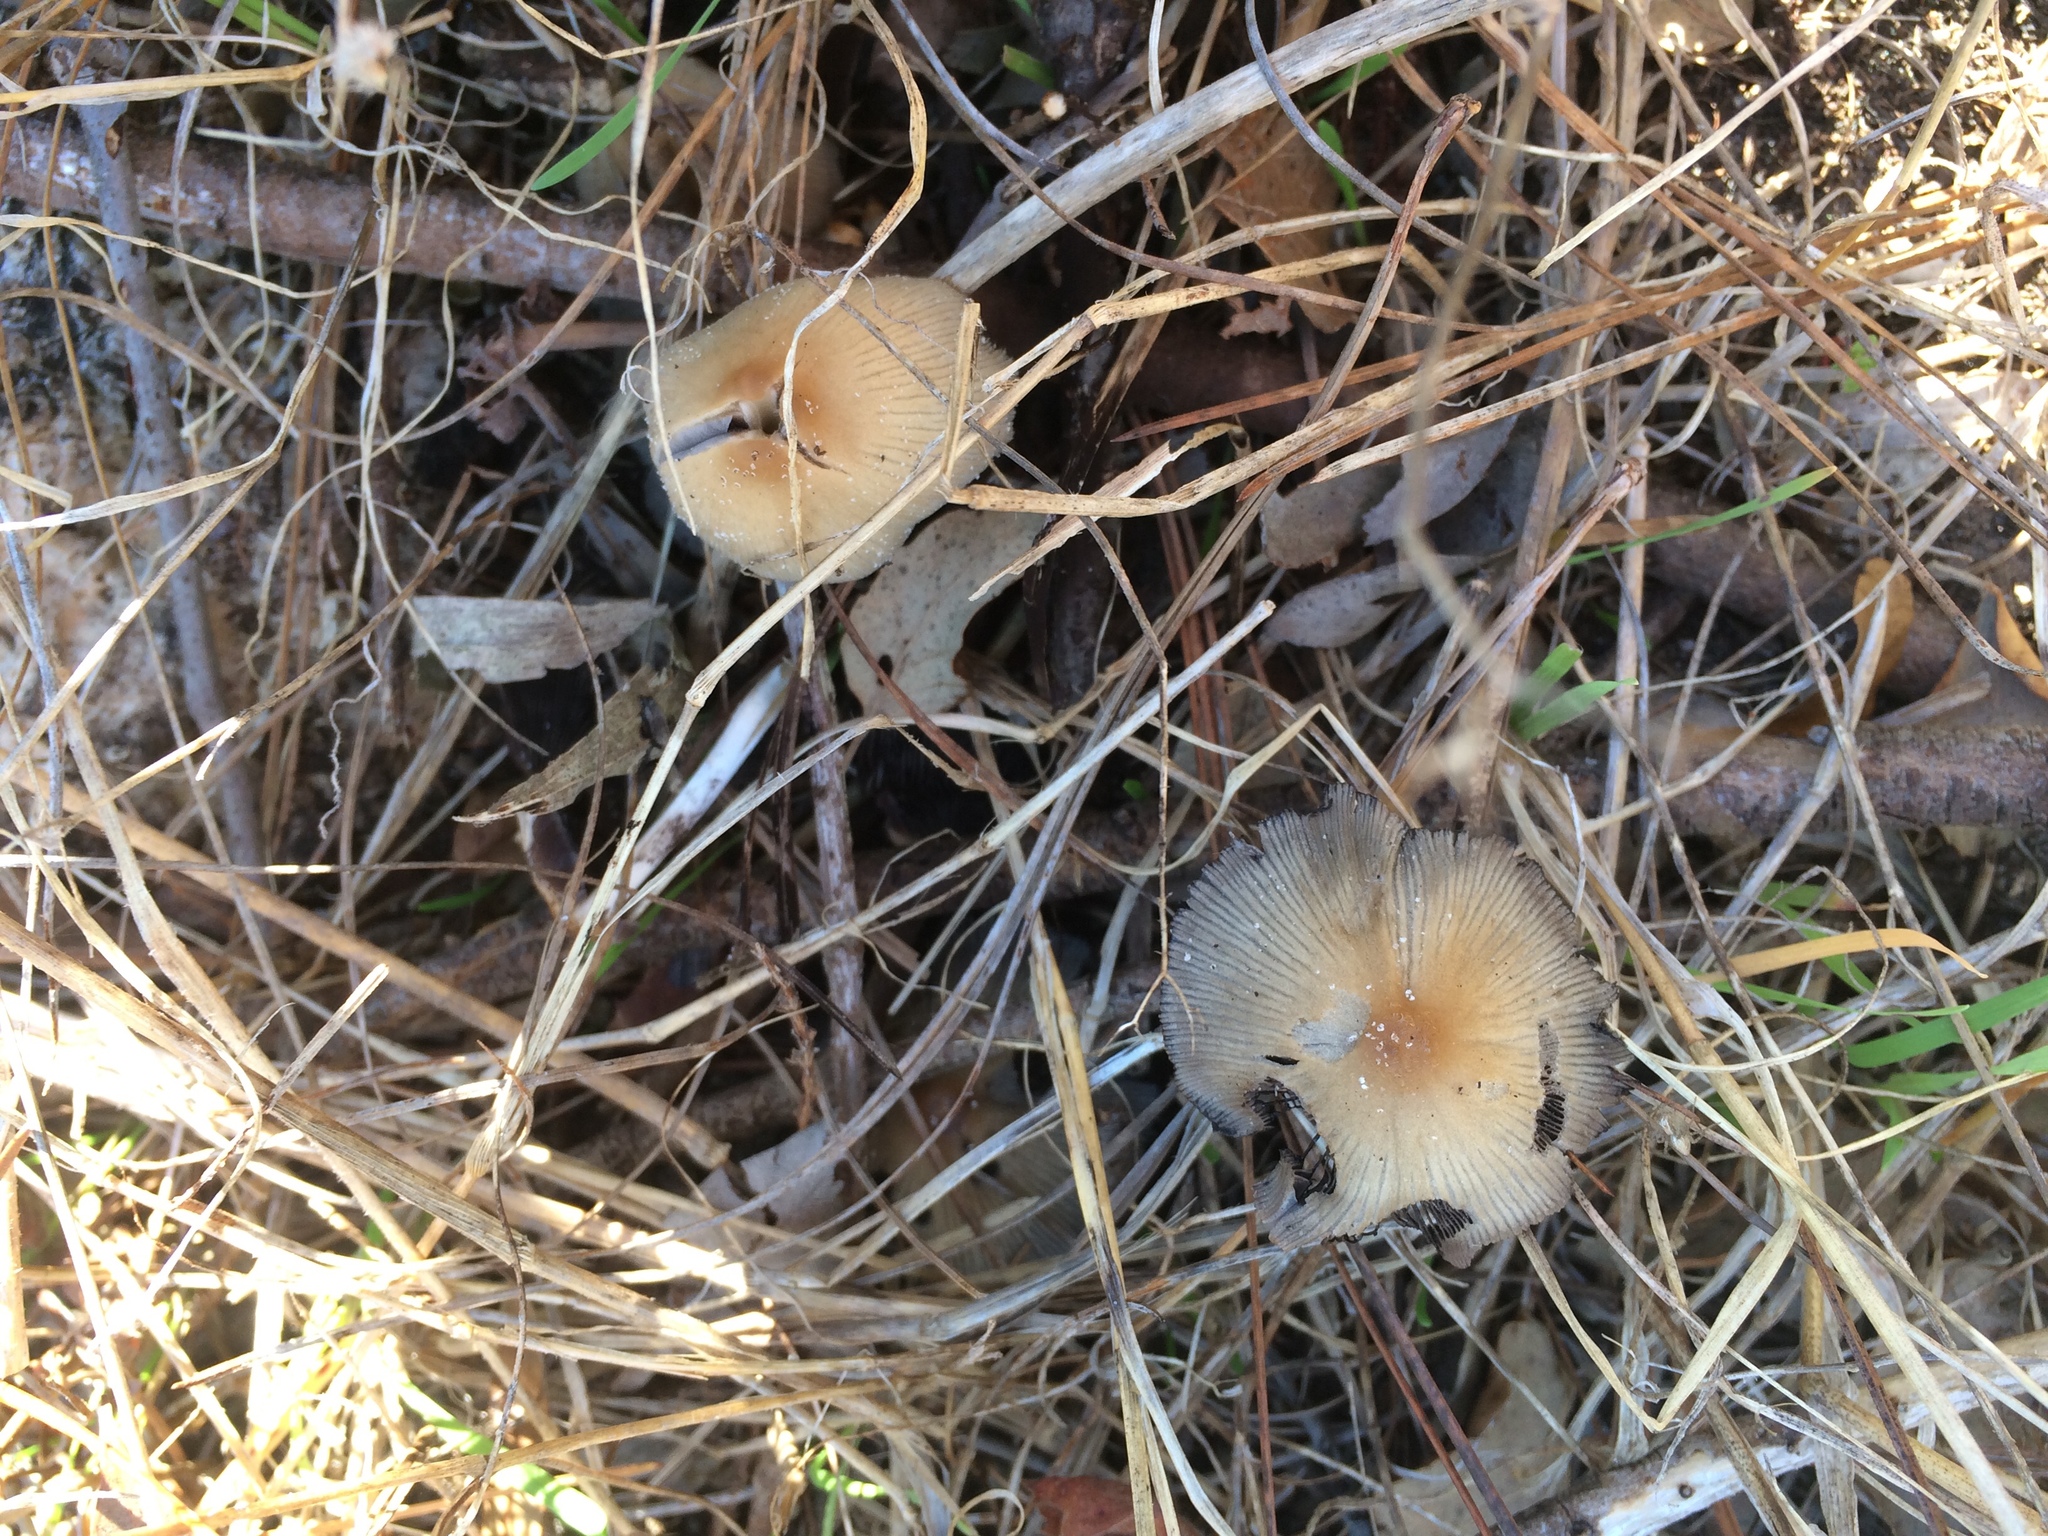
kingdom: Fungi
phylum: Basidiomycota
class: Agaricomycetes
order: Agaricales
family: Psathyrellaceae
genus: Coprinellus
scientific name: Coprinellus micaceus
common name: Glistening ink-cap
